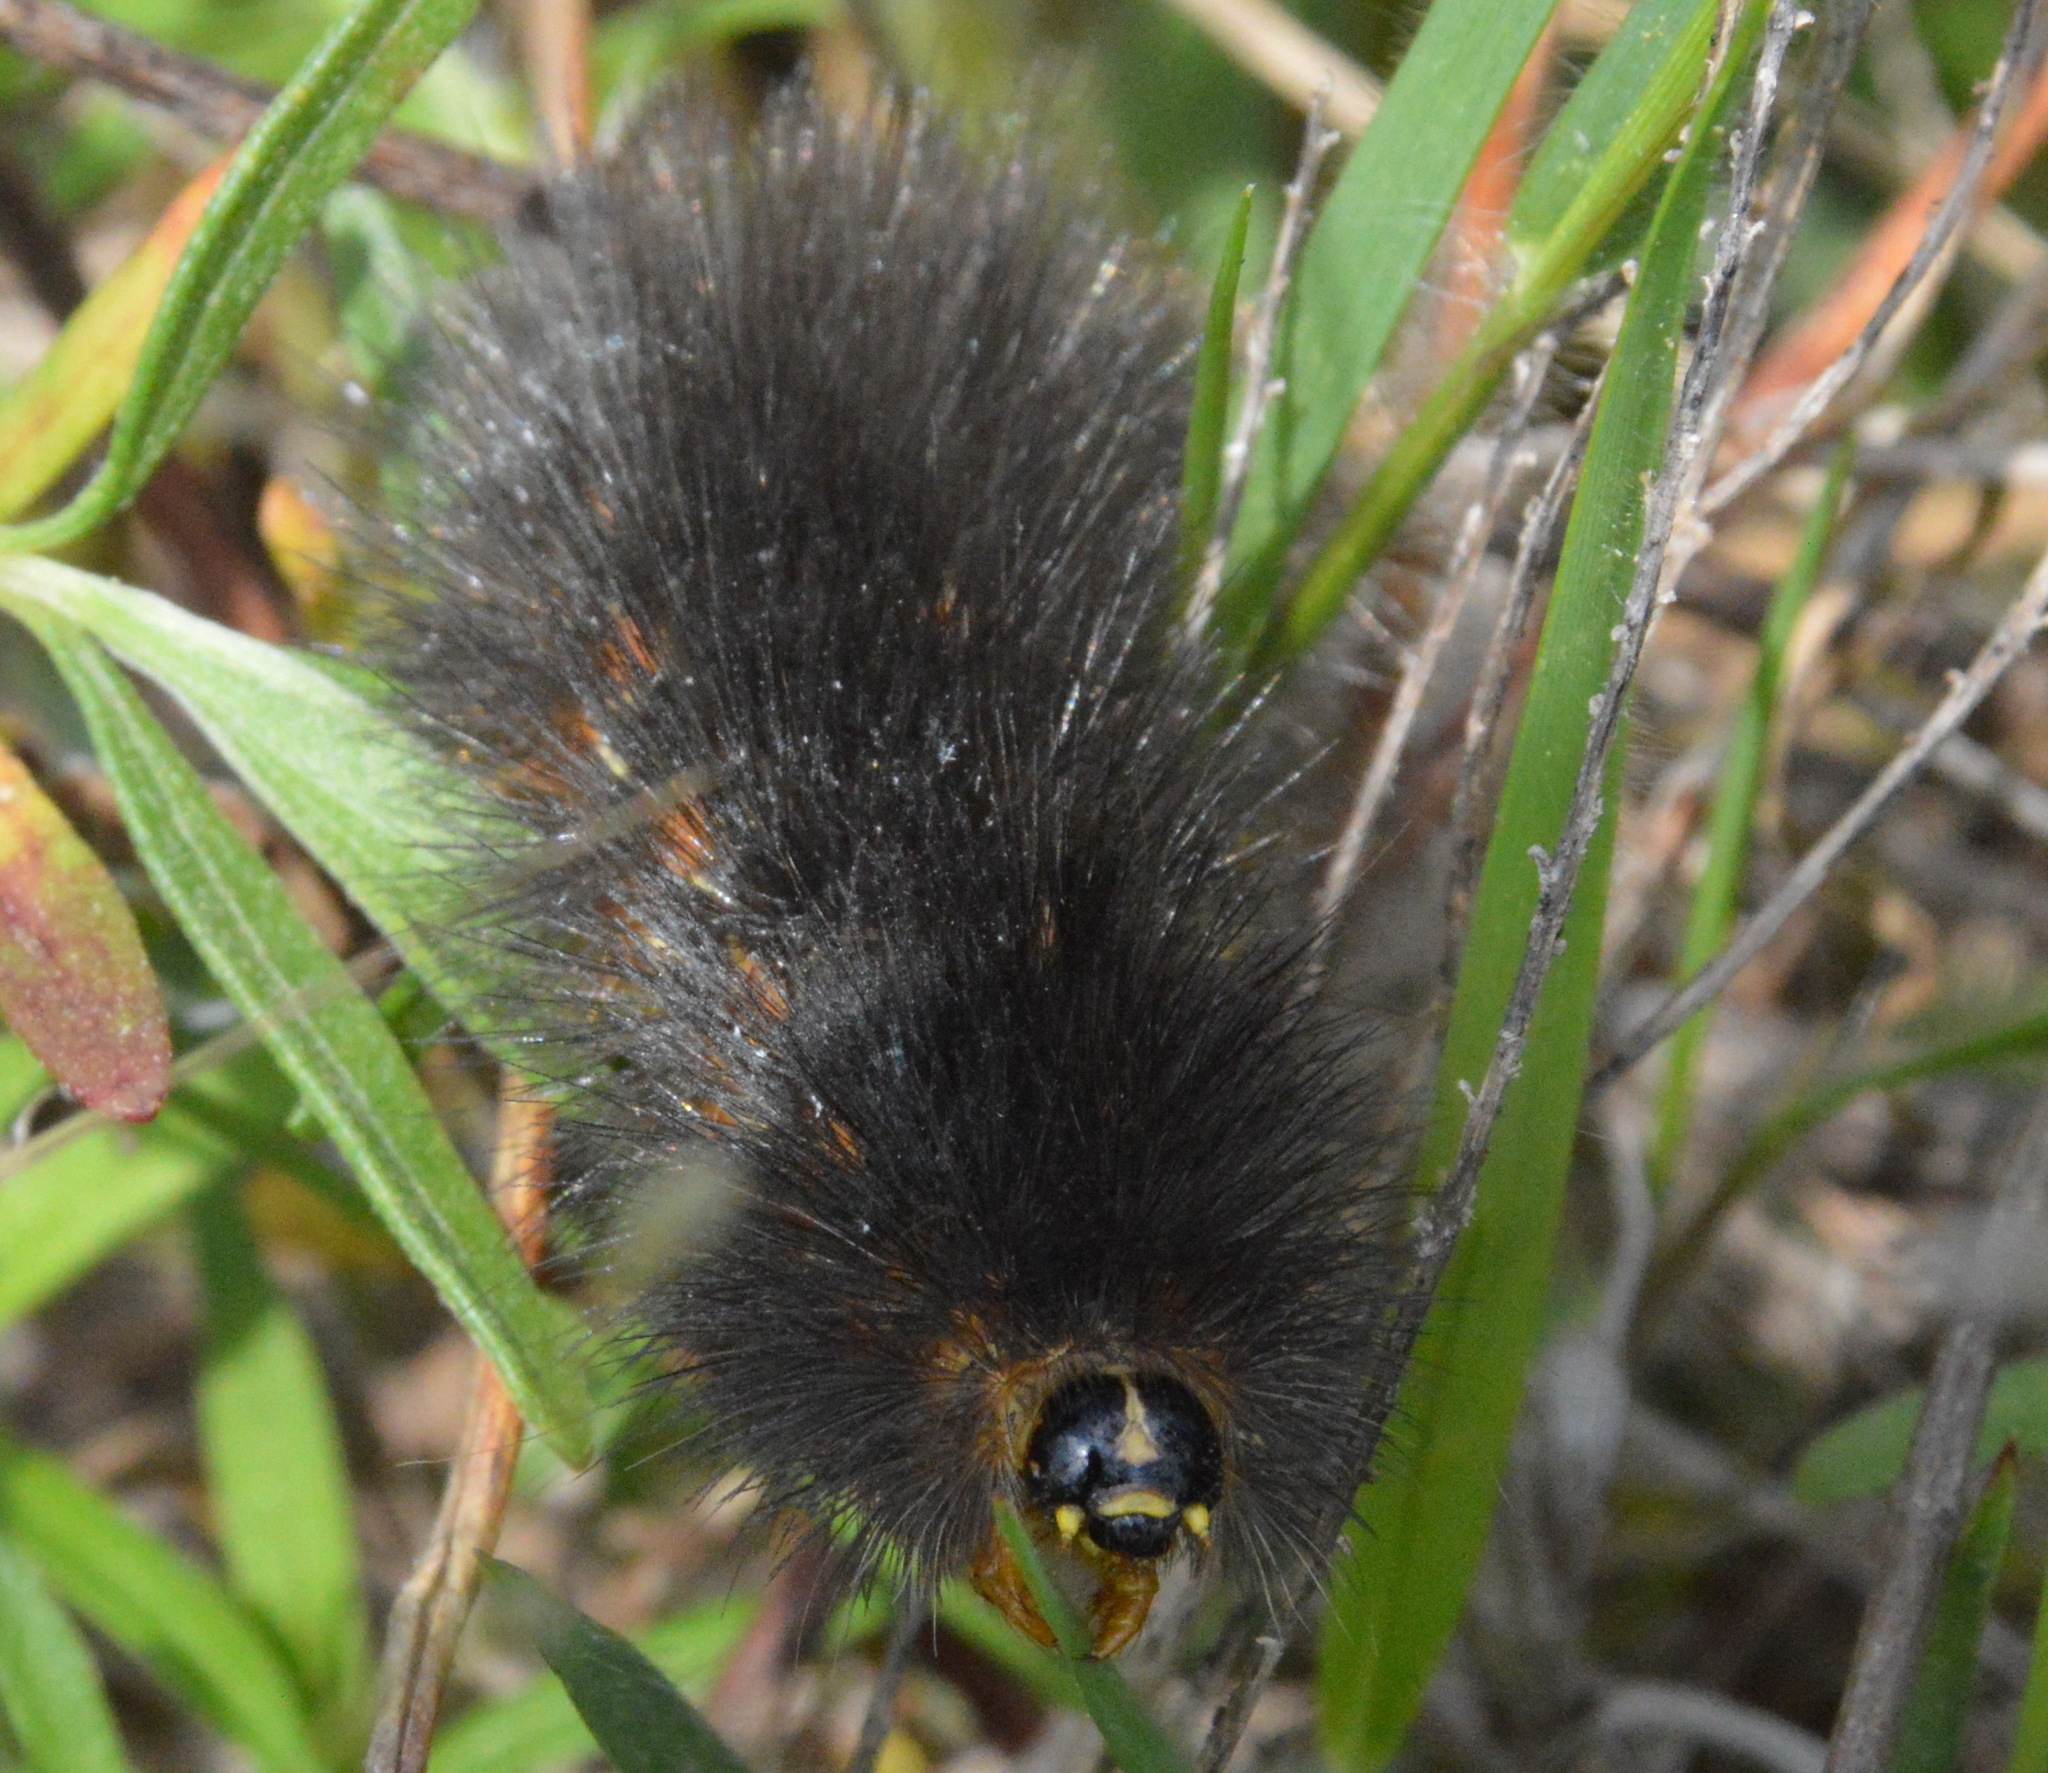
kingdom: Animalia
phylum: Arthropoda
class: Insecta
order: Lepidoptera
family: Erebidae
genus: Estigmene
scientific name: Estigmene acrea
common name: Salt marsh moth
